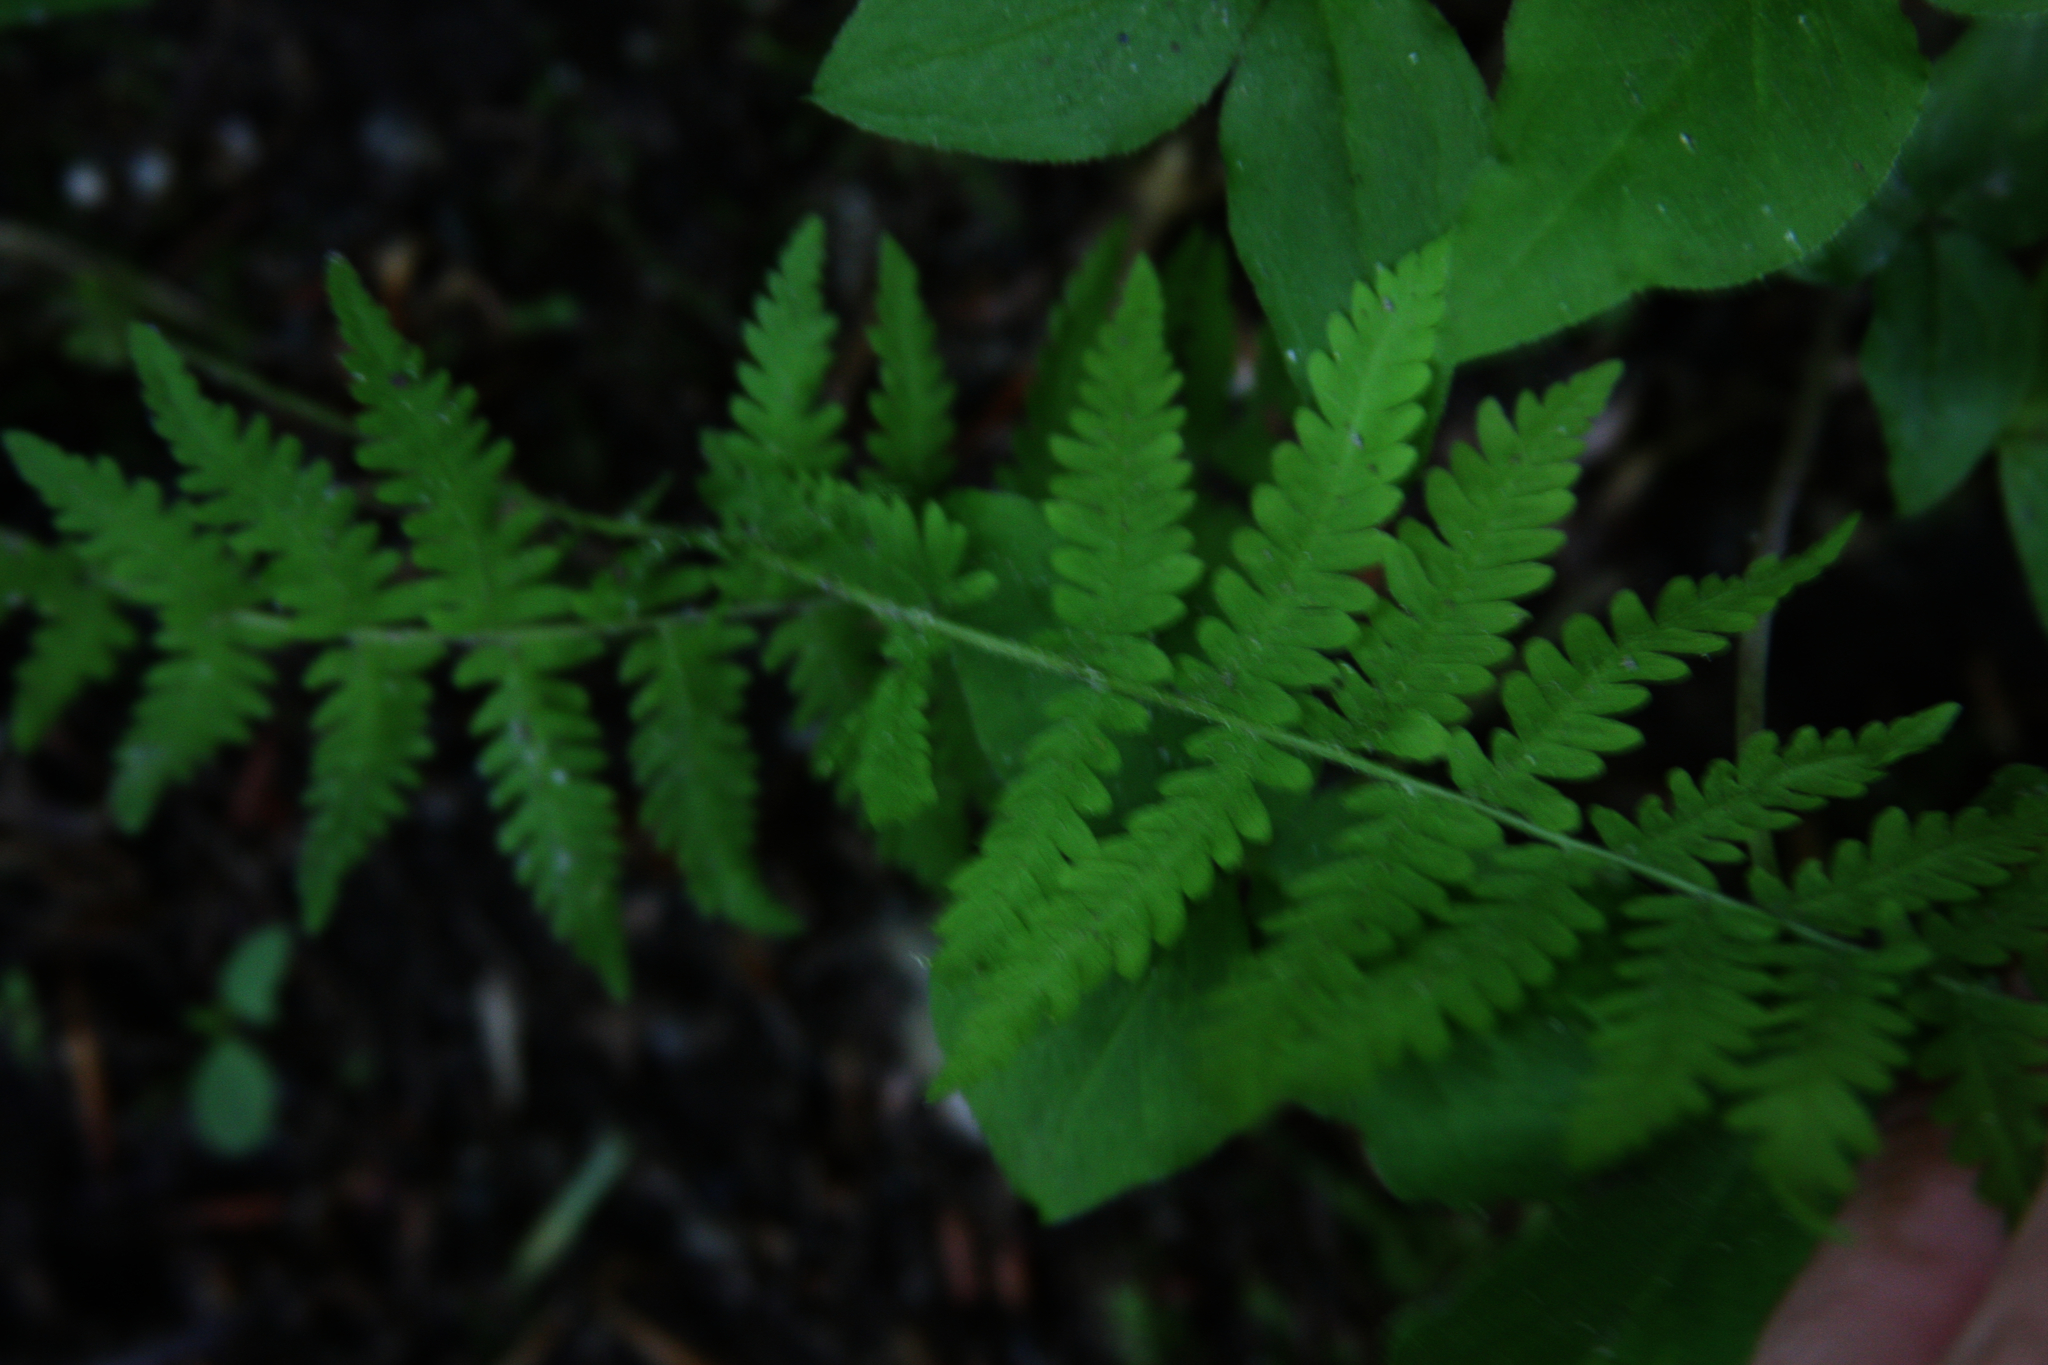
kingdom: Plantae
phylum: Tracheophyta
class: Polypodiopsida
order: Polypodiales
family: Thelypteridaceae
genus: Amauropelta
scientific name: Amauropelta noveboracensis
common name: New york fern
